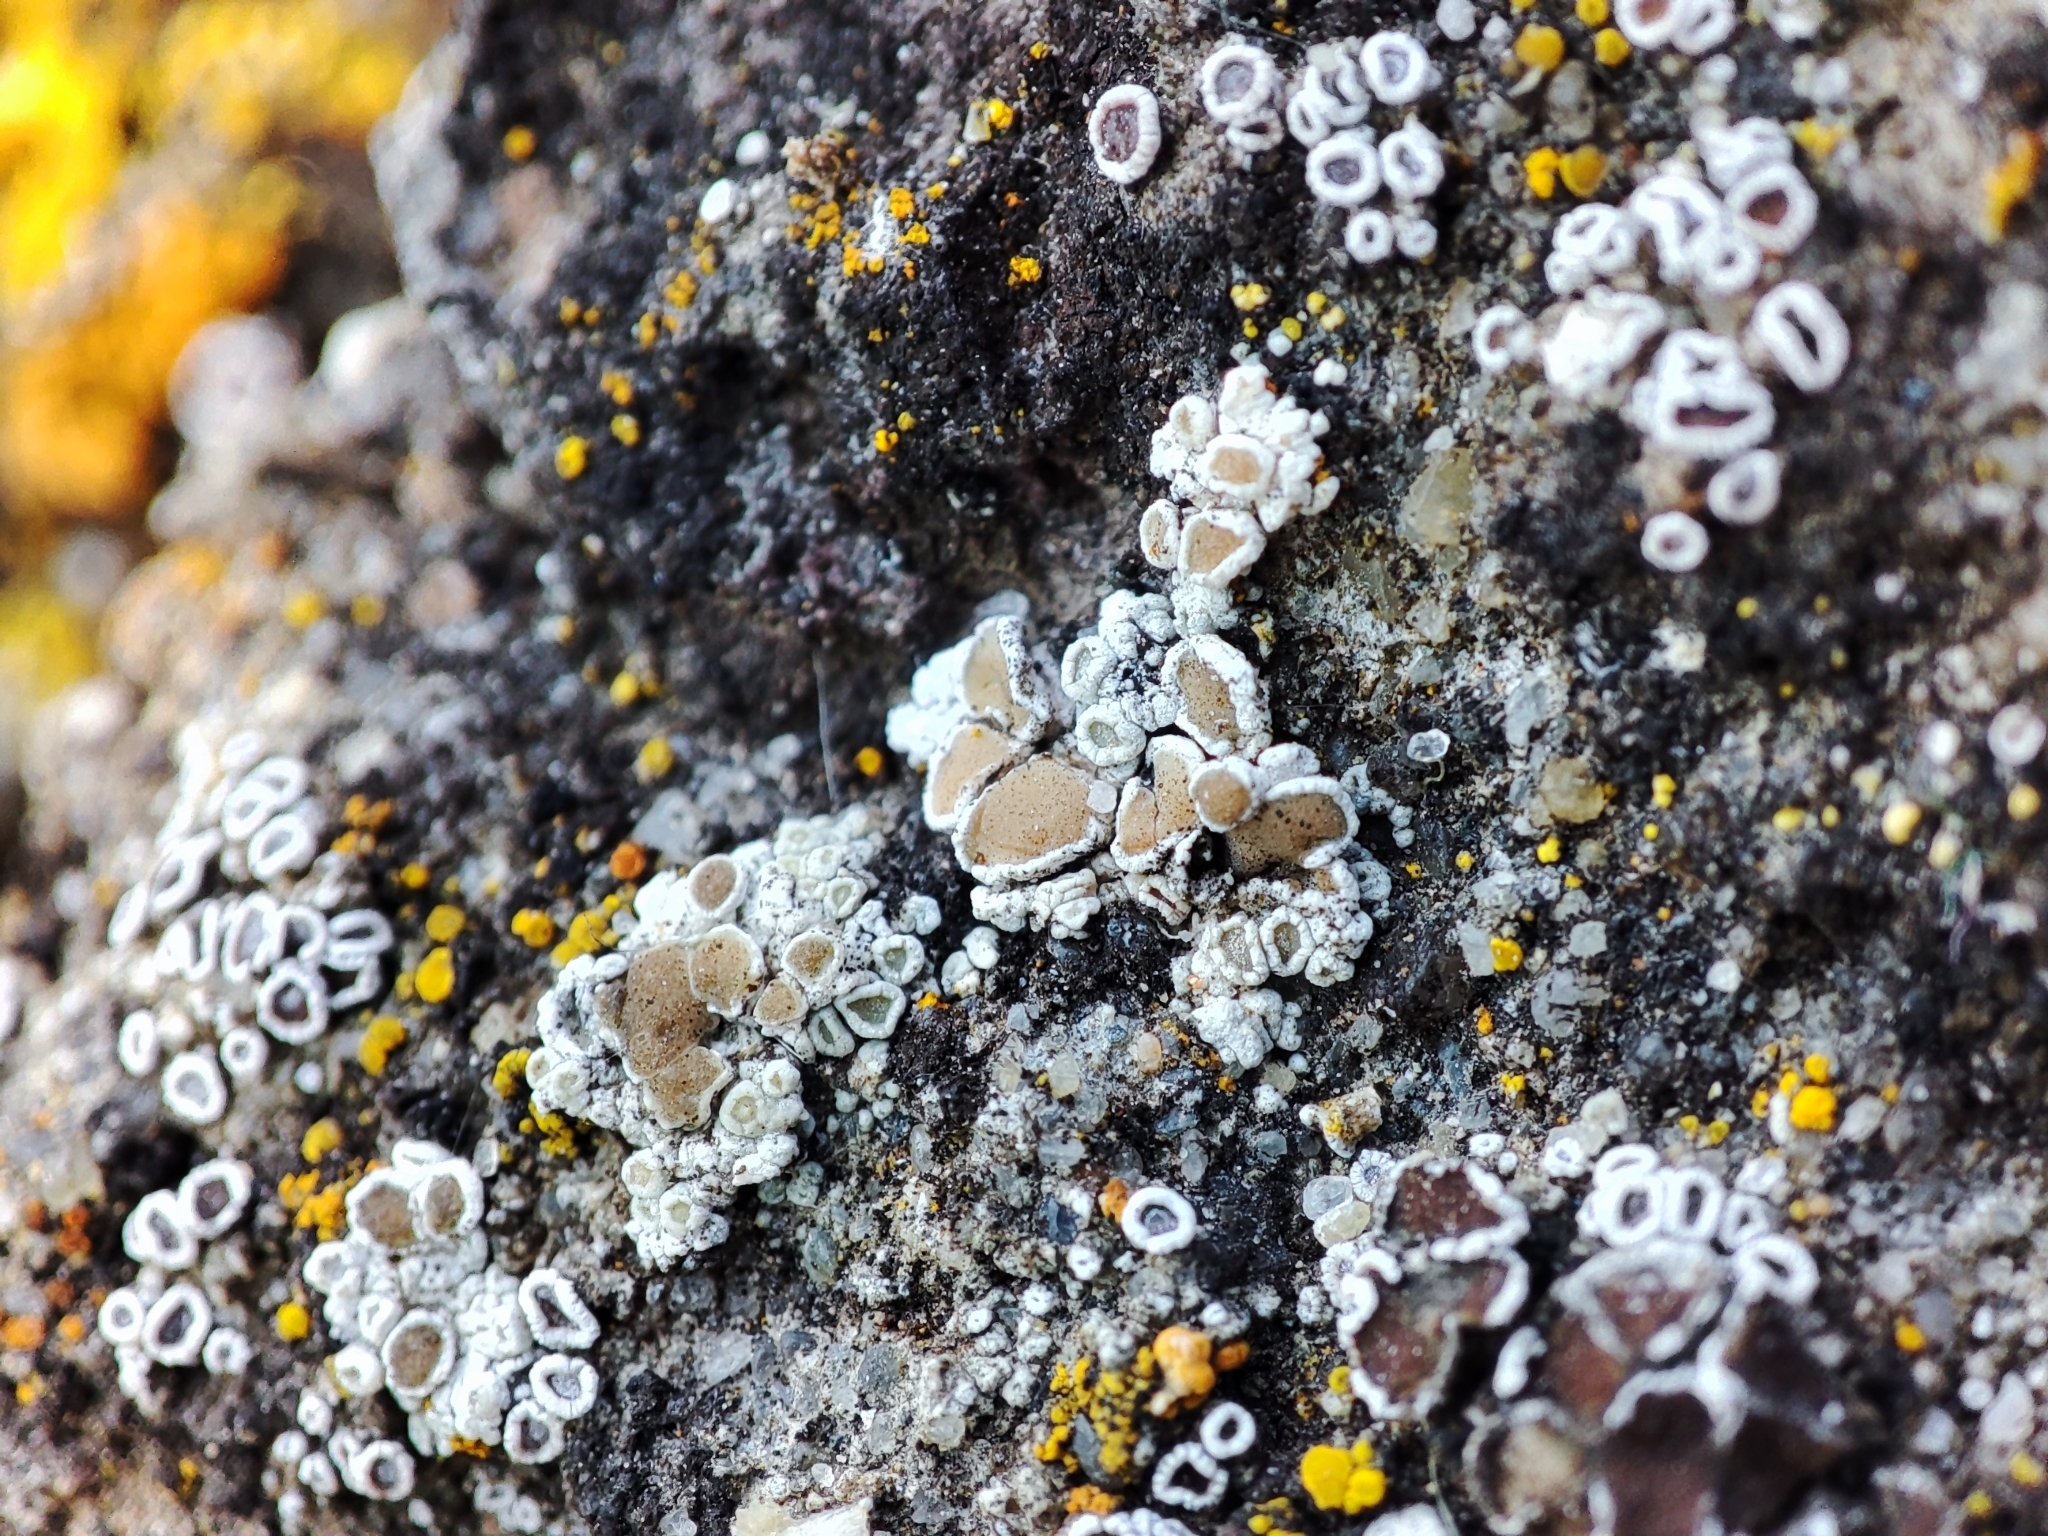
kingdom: Fungi
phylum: Ascomycota
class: Lecanoromycetes
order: Lecanorales
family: Lecanoraceae
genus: Polyozosia
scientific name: Polyozosia albescens
